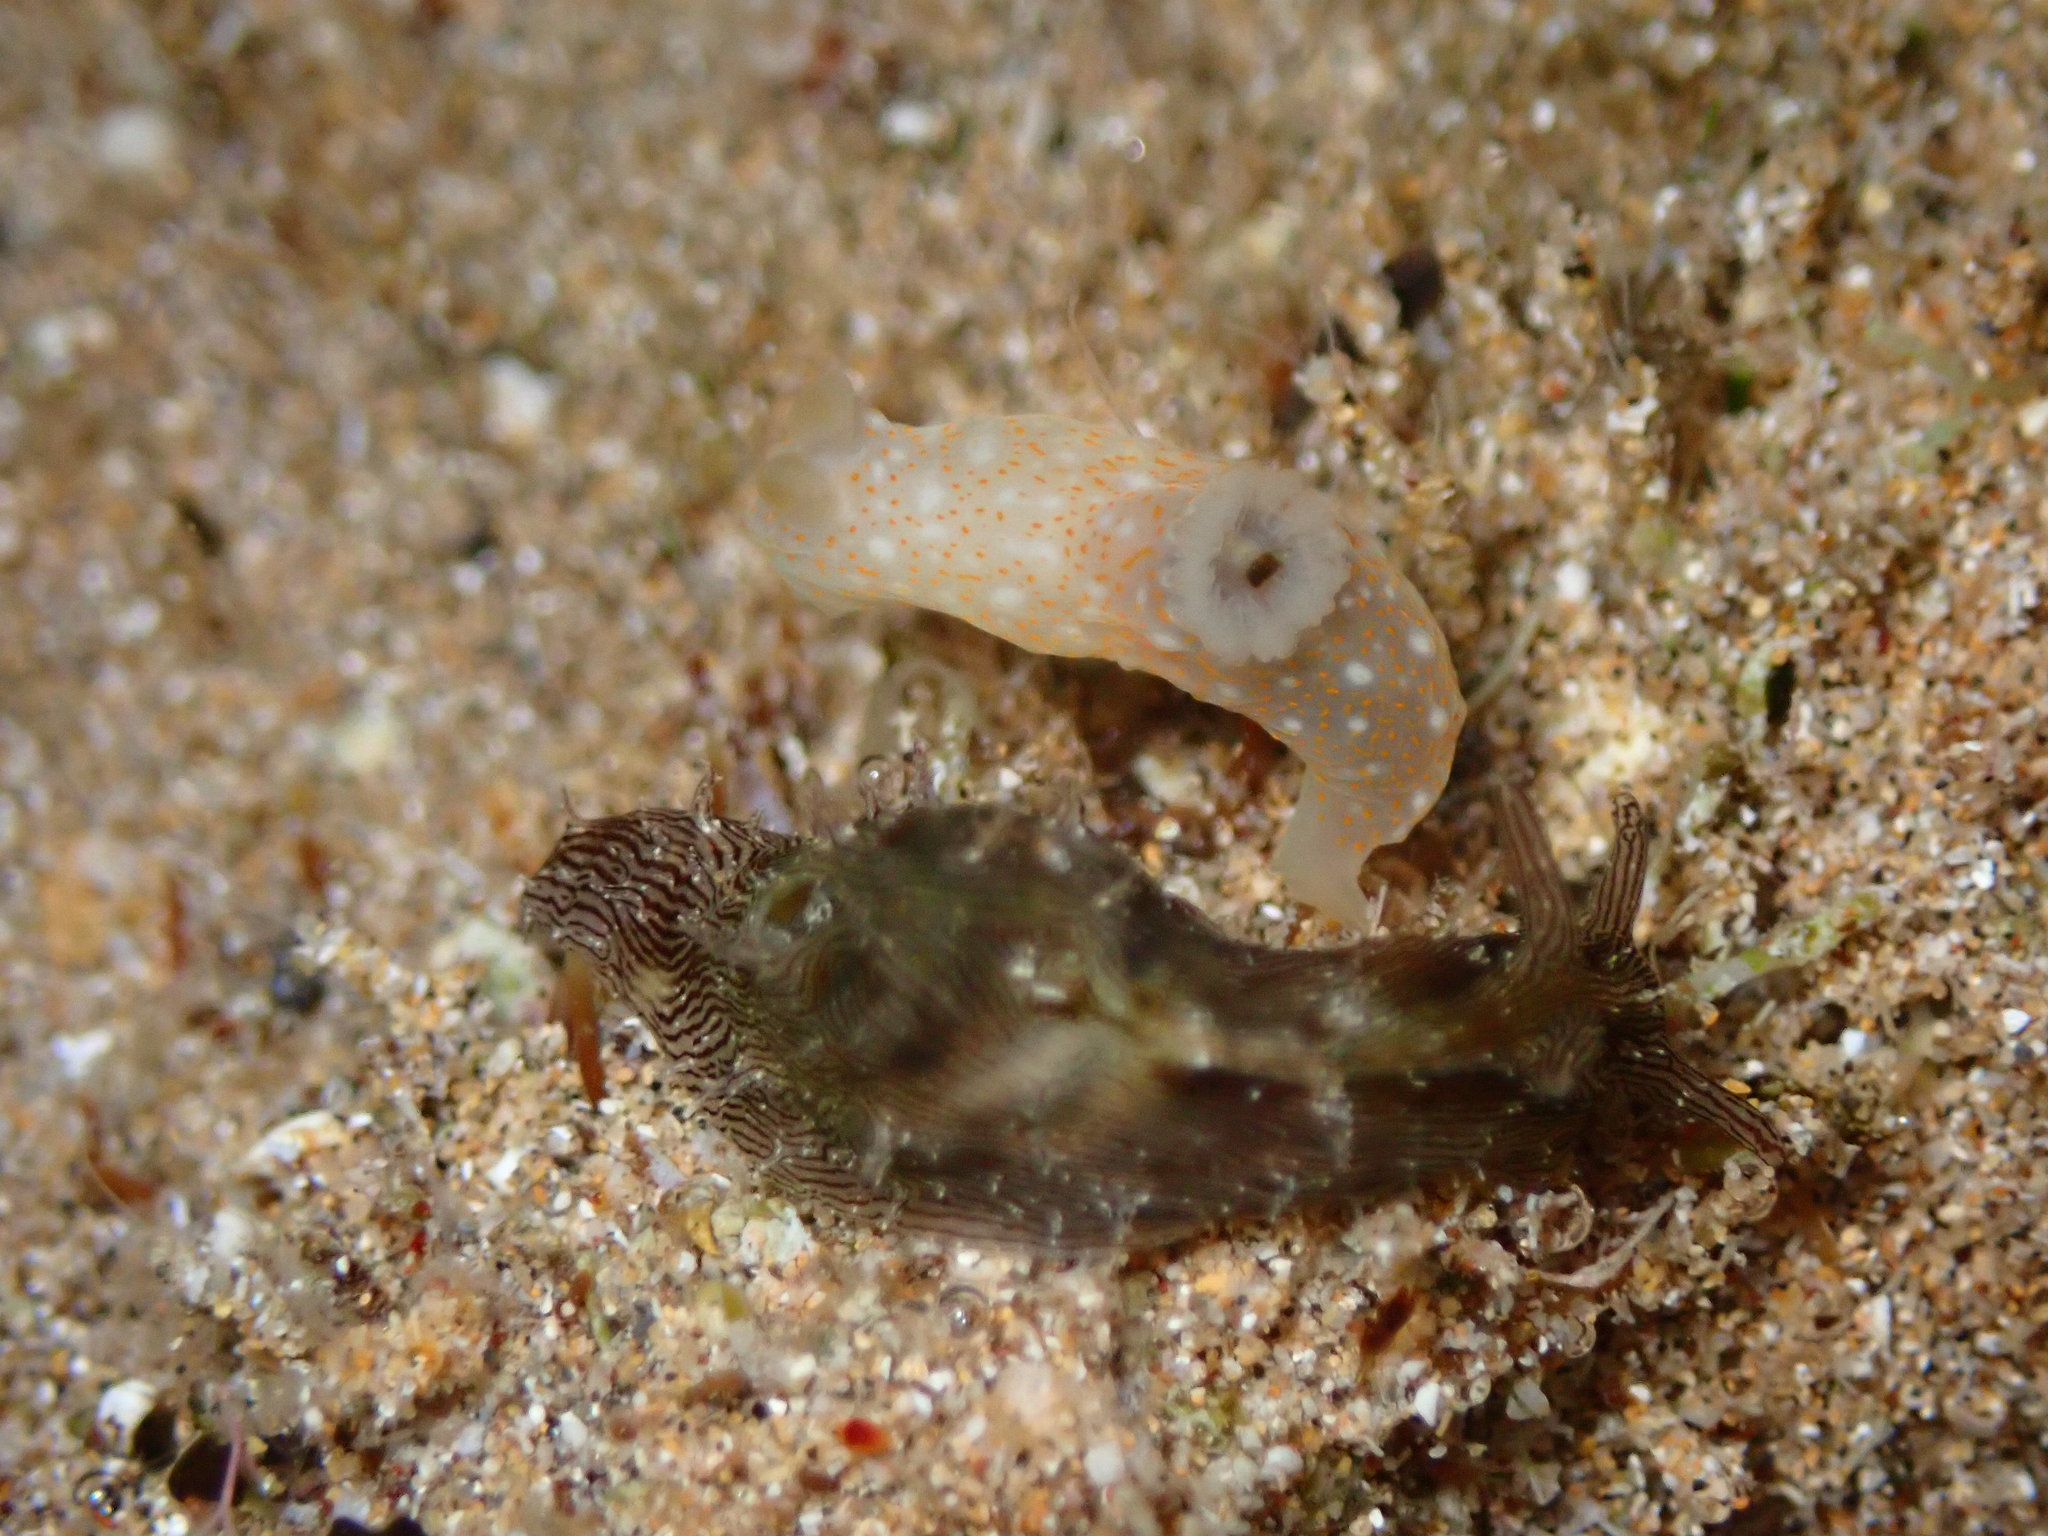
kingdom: Animalia
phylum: Mollusca
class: Gastropoda
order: Nudibranchia
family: Polyceridae
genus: Gymnodoris
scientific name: Gymnodoris okinawae
